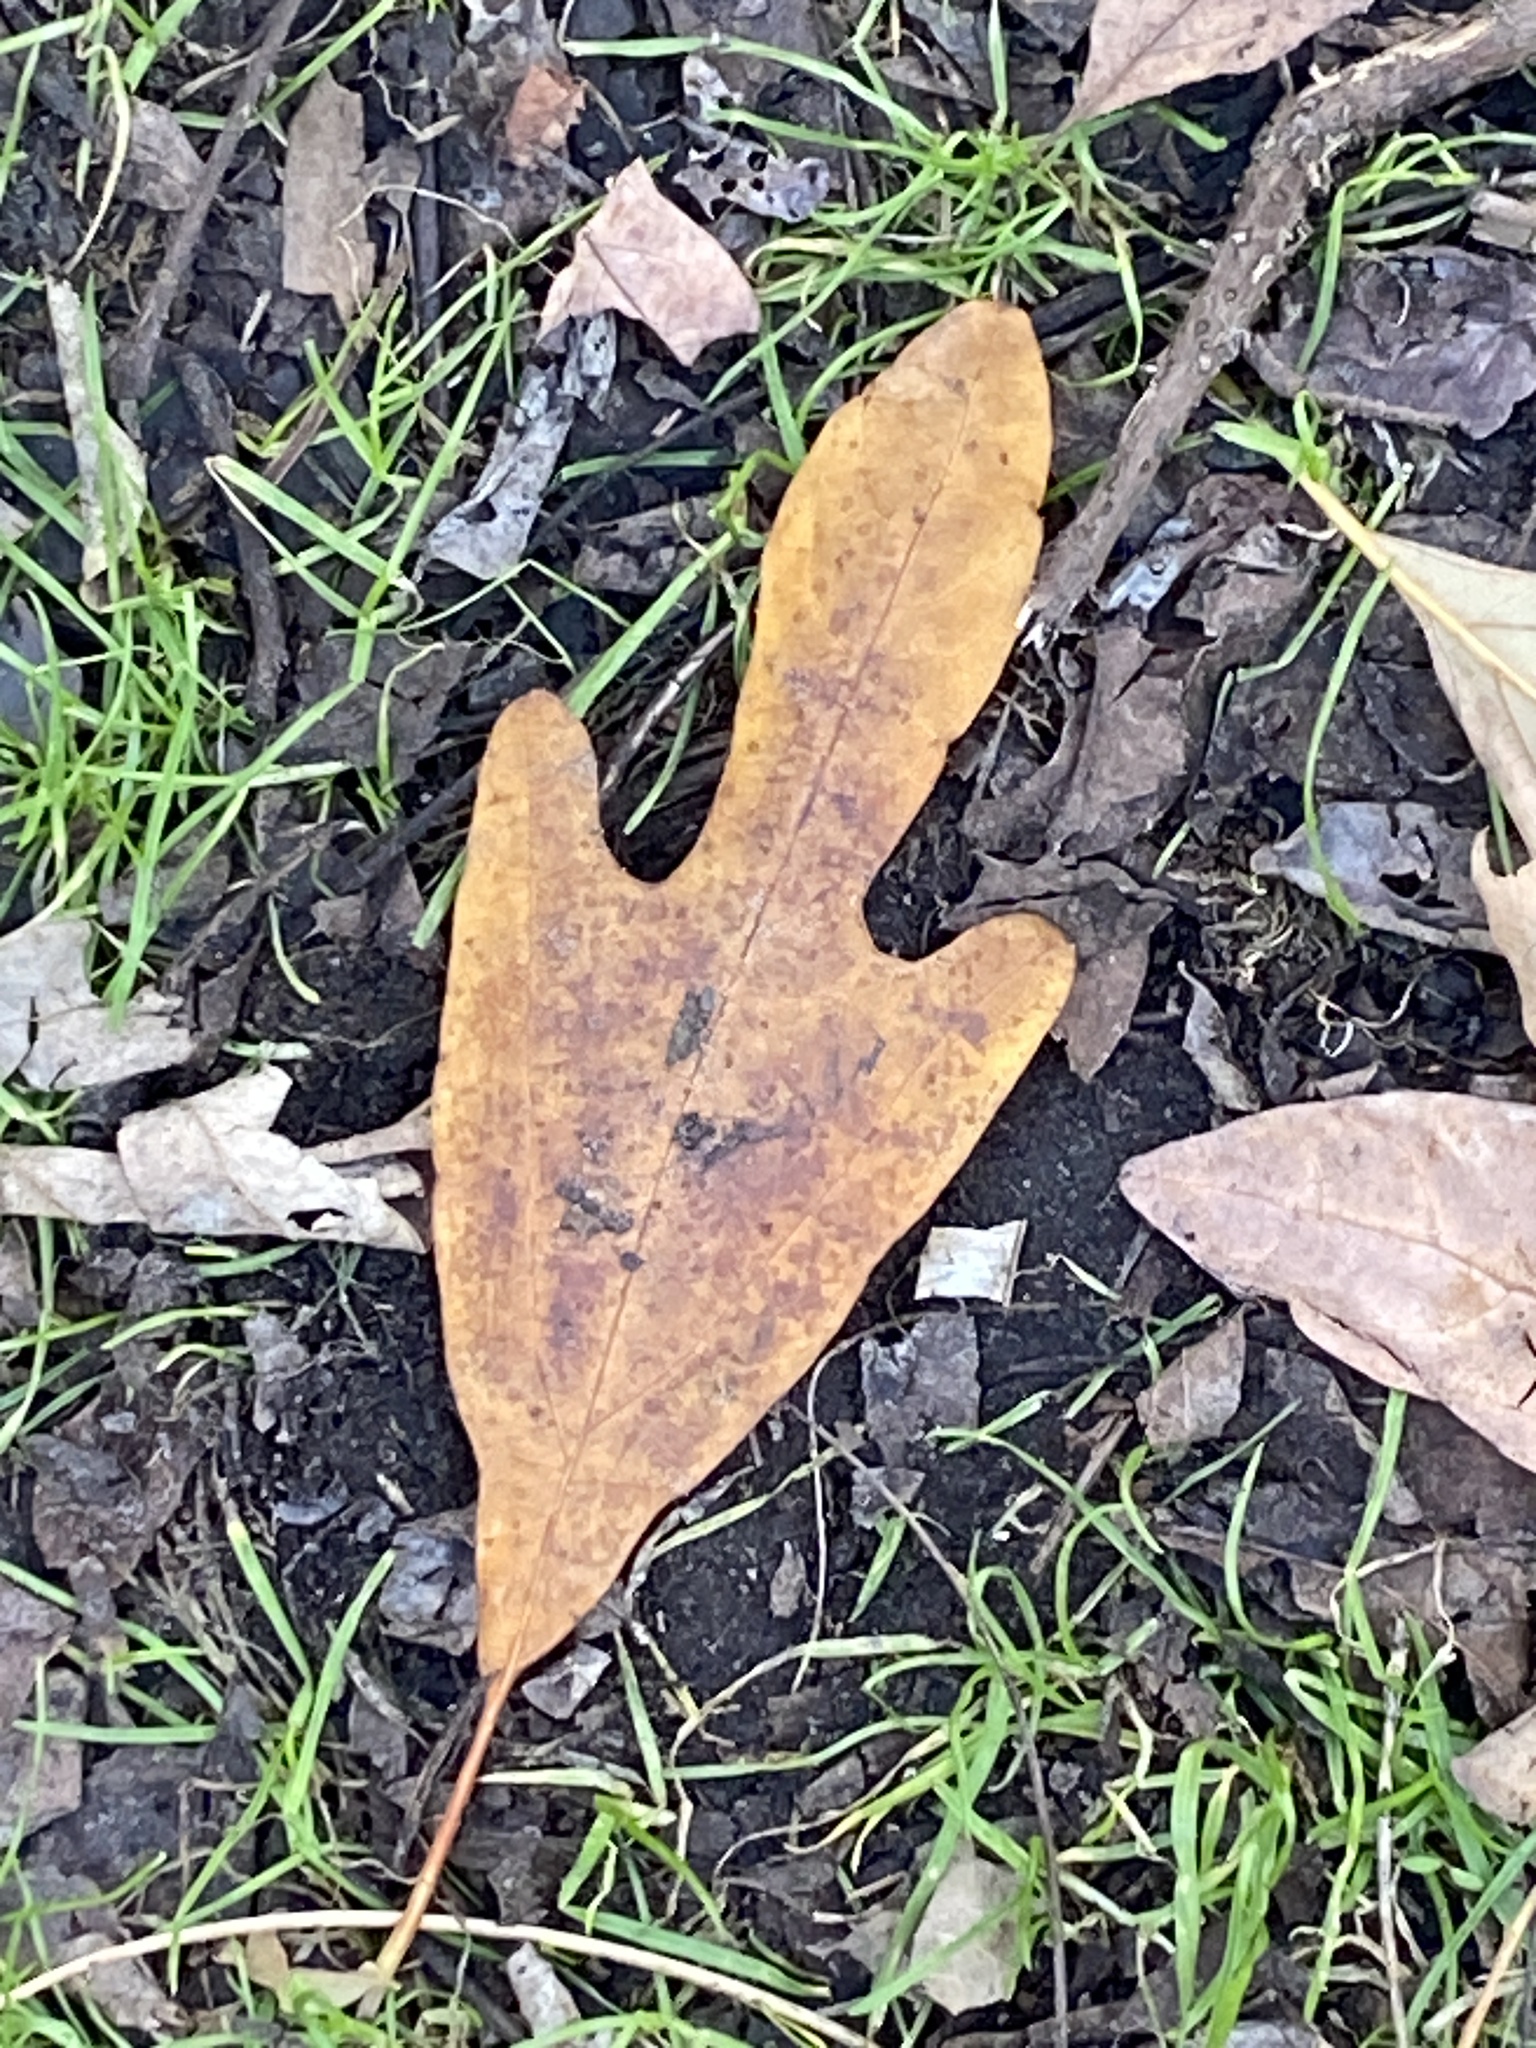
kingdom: Plantae
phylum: Tracheophyta
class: Magnoliopsida
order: Laurales
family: Lauraceae
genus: Sassafras
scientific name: Sassafras albidum
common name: Sassafras
